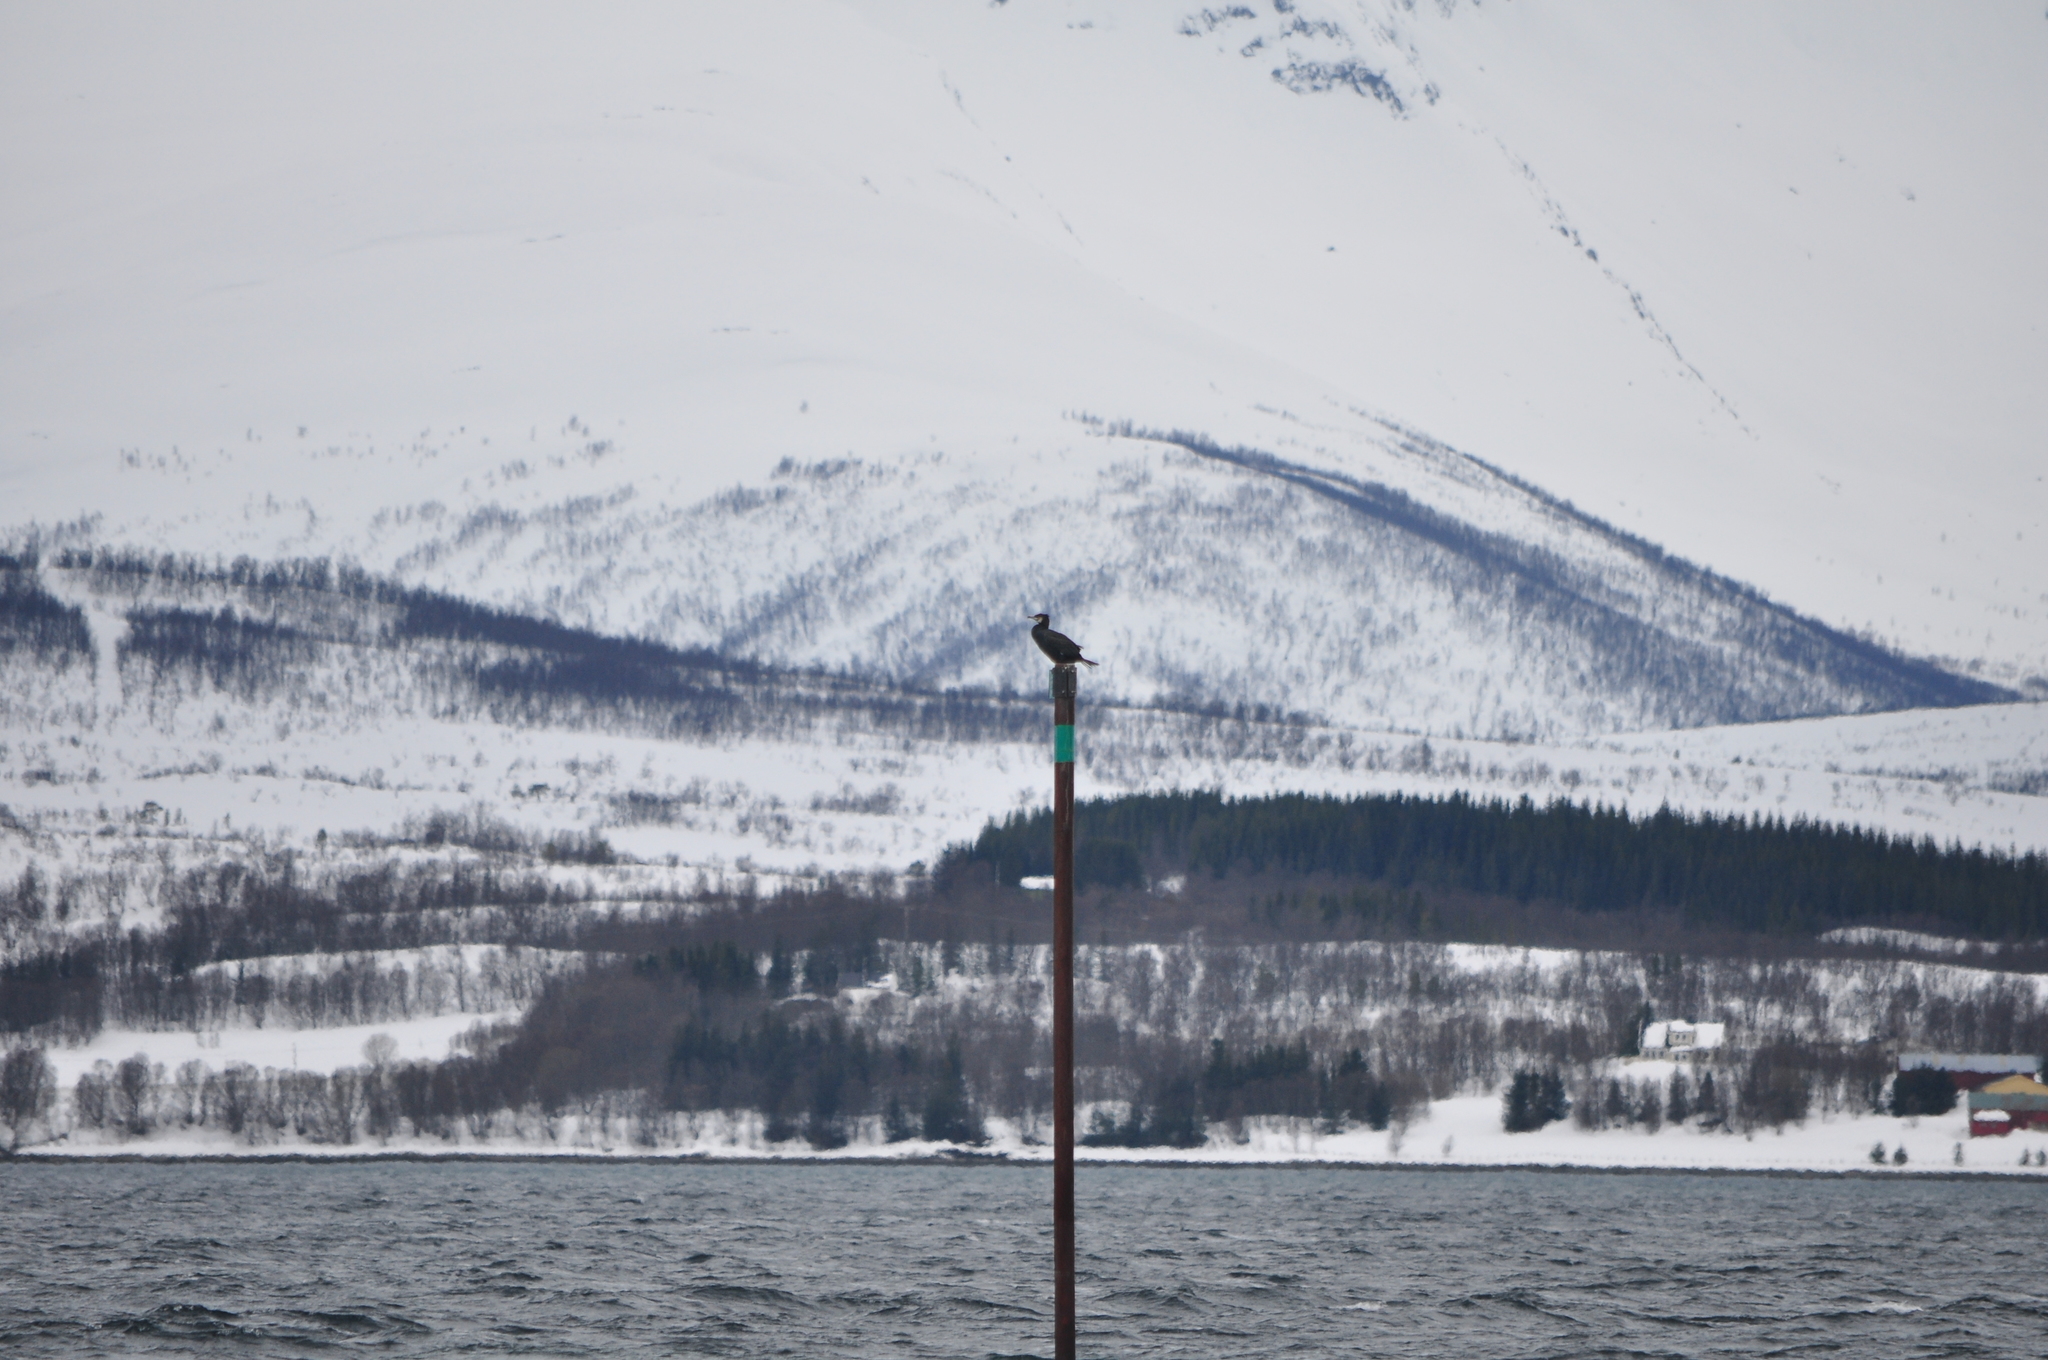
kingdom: Animalia
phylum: Chordata
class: Aves
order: Suliformes
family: Phalacrocoracidae
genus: Phalacrocorax
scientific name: Phalacrocorax carbo
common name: Great cormorant
